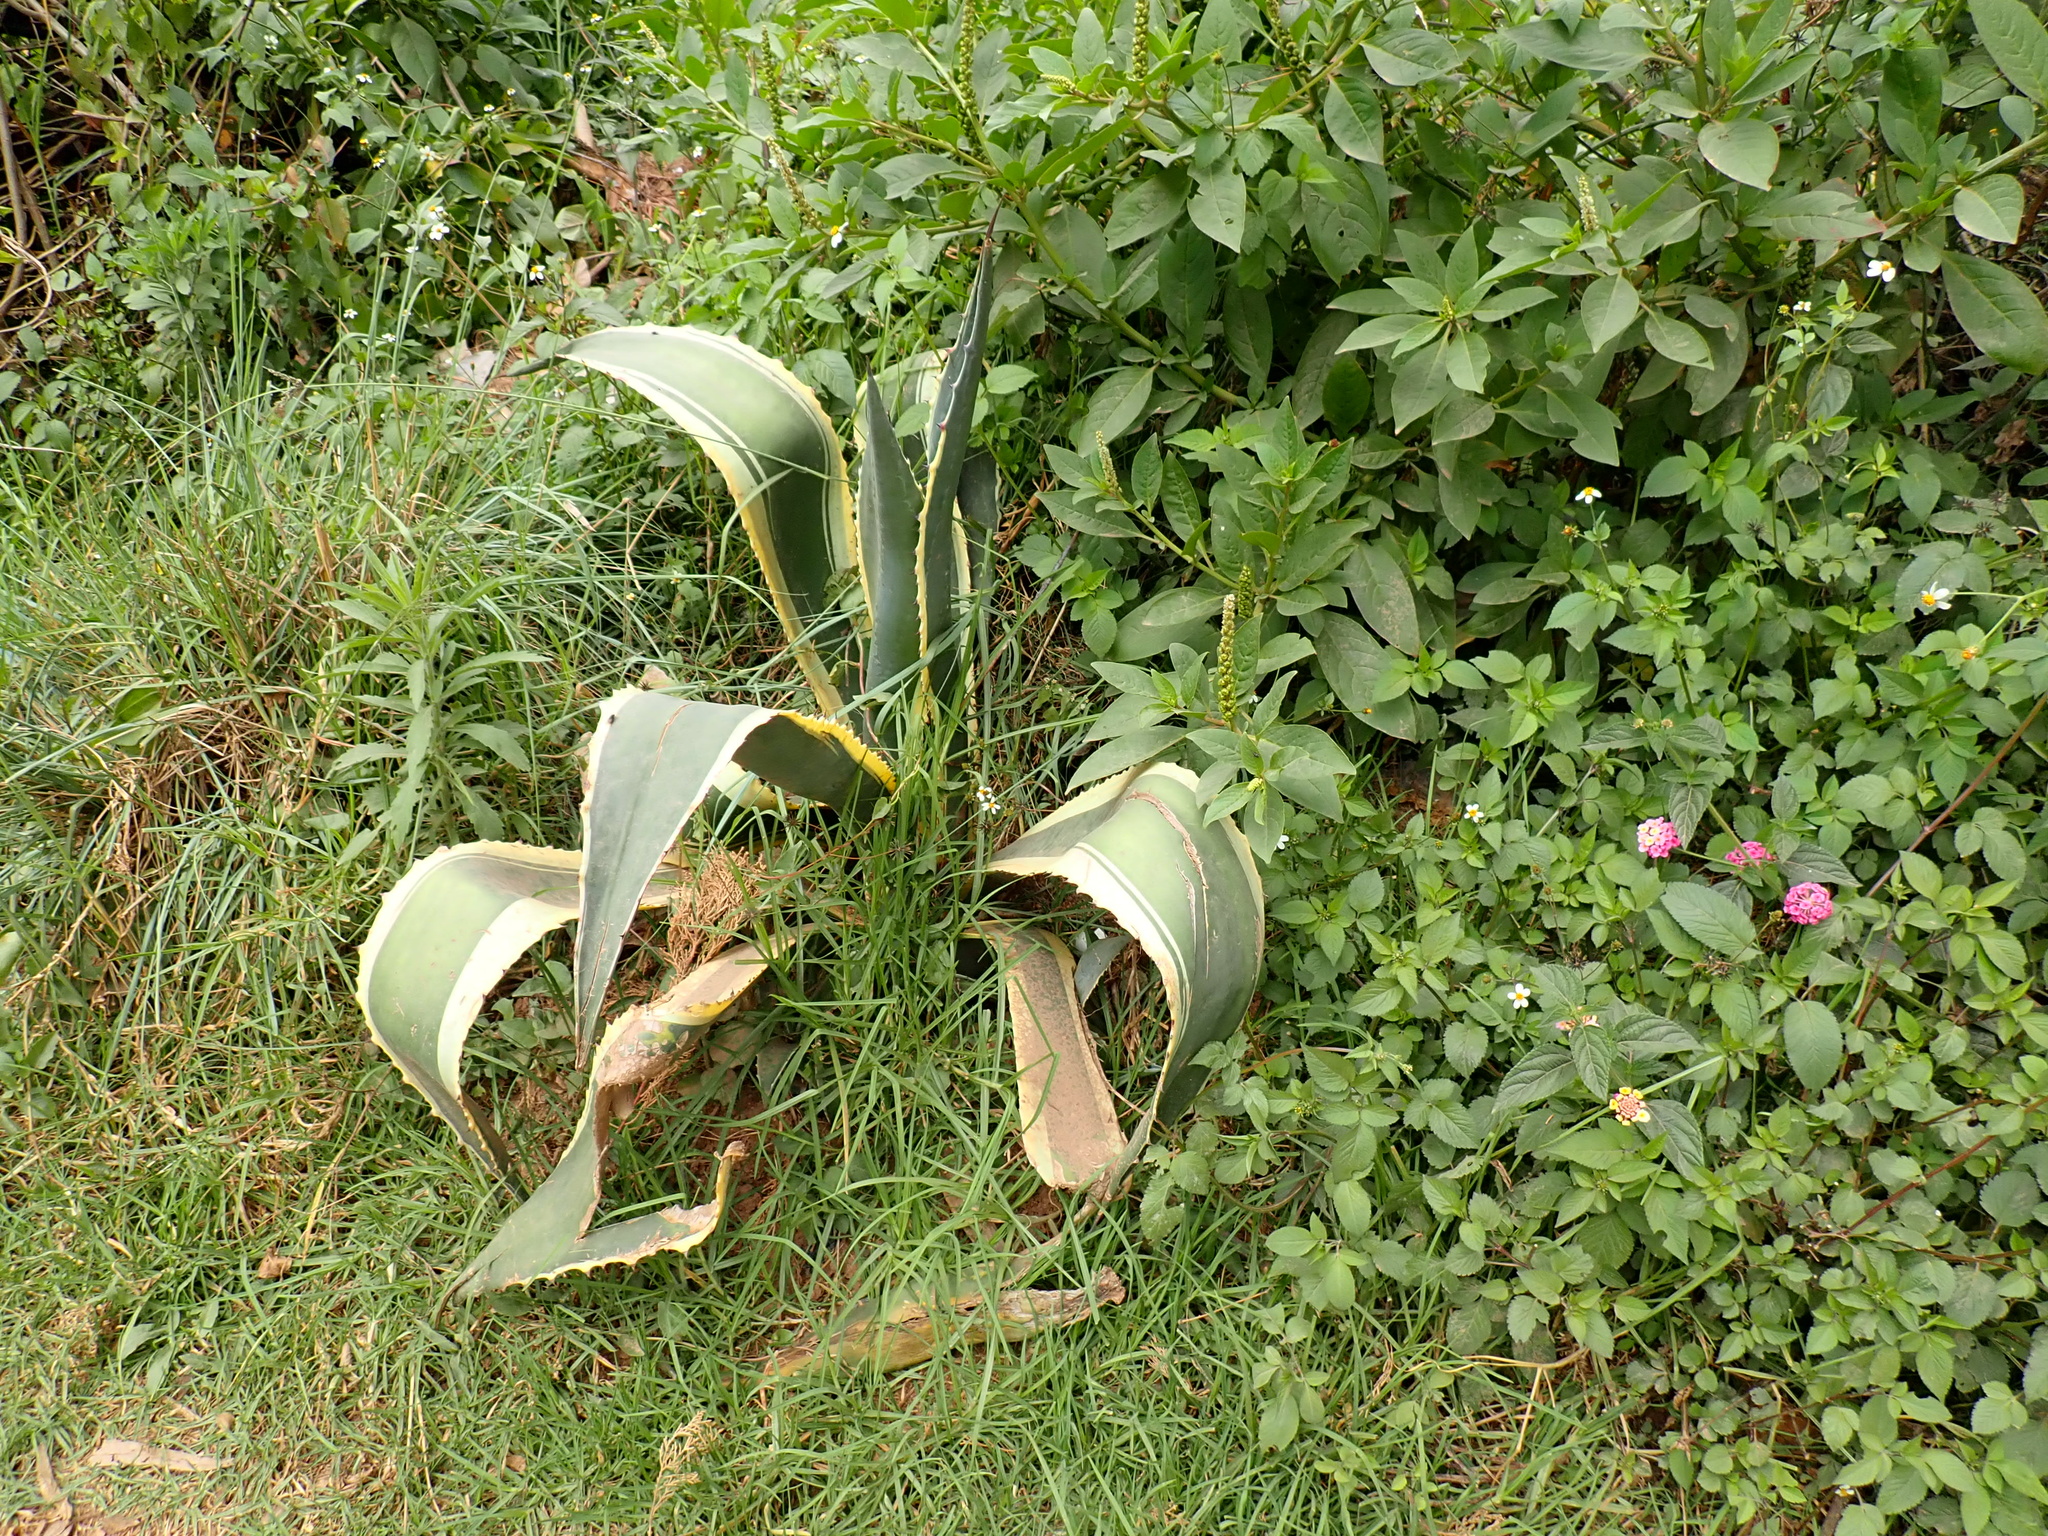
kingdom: Plantae
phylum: Tracheophyta
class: Liliopsida
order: Asparagales
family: Asparagaceae
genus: Agave
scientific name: Agave americana
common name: Centuryplant
